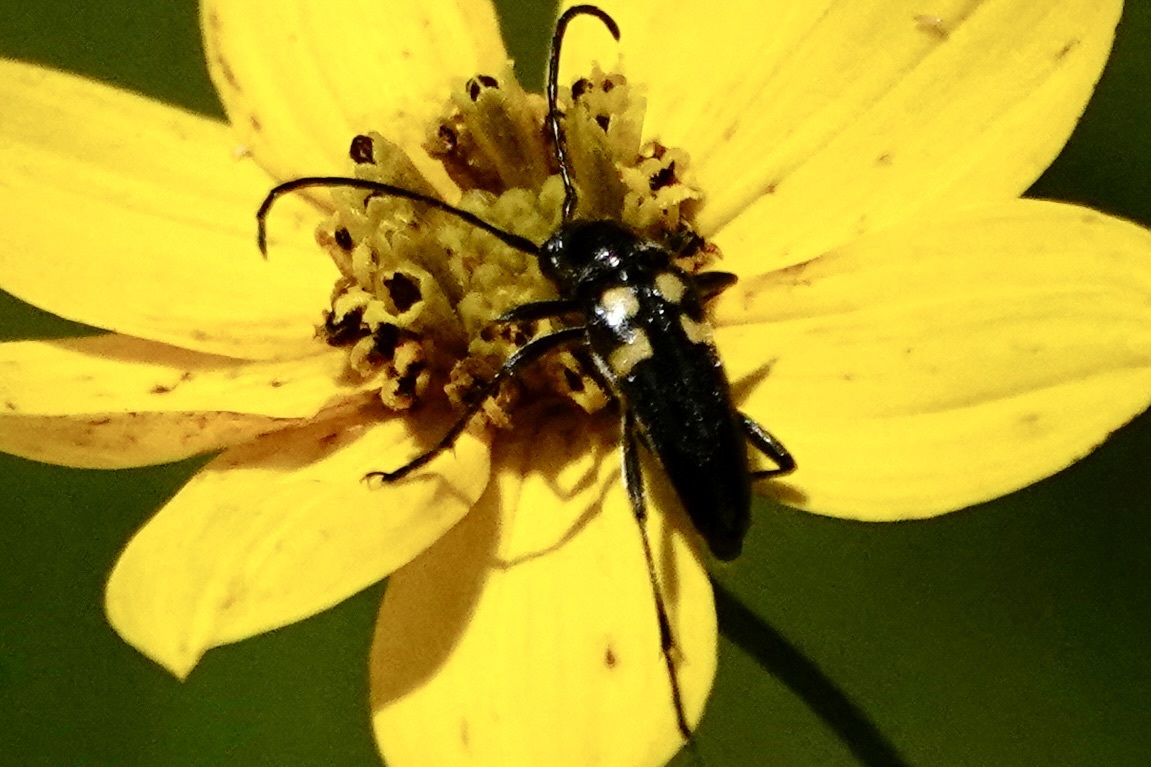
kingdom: Animalia
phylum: Arthropoda
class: Insecta
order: Coleoptera
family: Cerambycidae
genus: Typocerus
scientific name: Typocerus lunulatus
